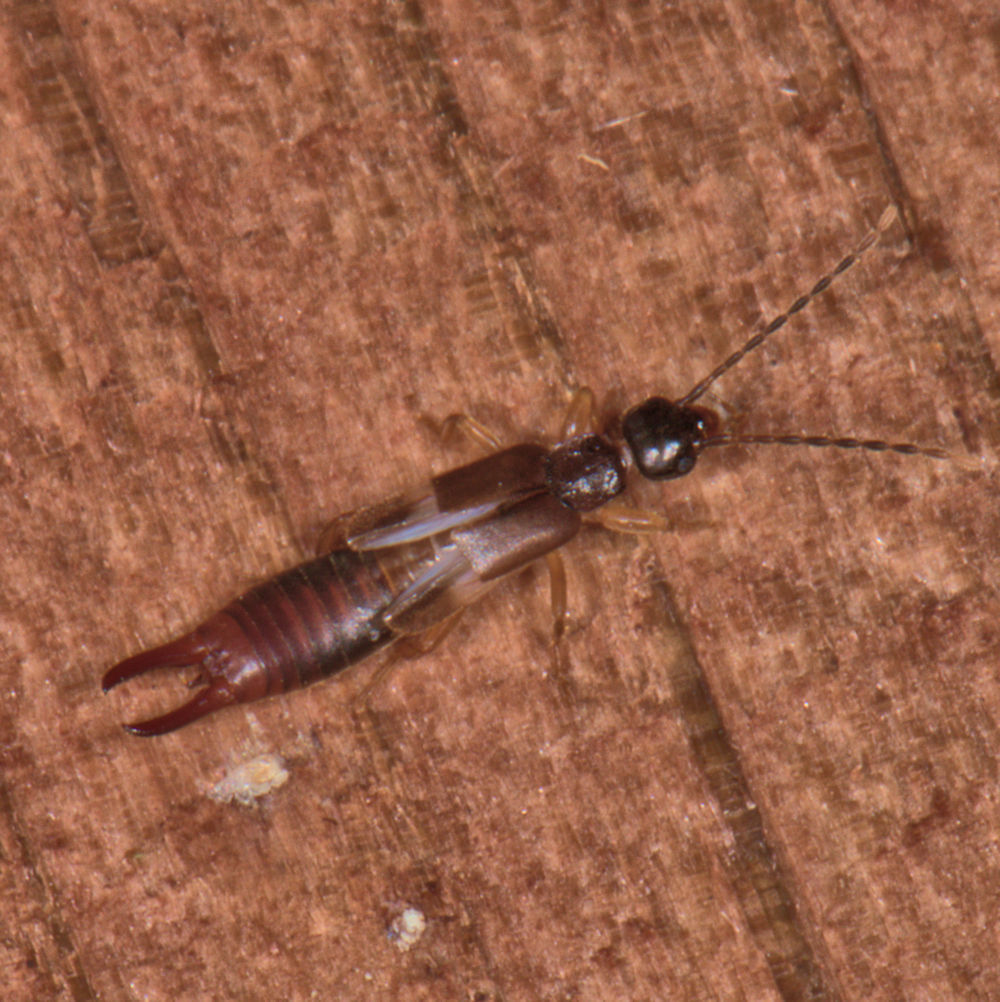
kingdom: Animalia
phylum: Arthropoda
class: Insecta
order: Dermaptera
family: Spongiphoridae
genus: Labia
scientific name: Labia minor
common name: Lesser earwig
